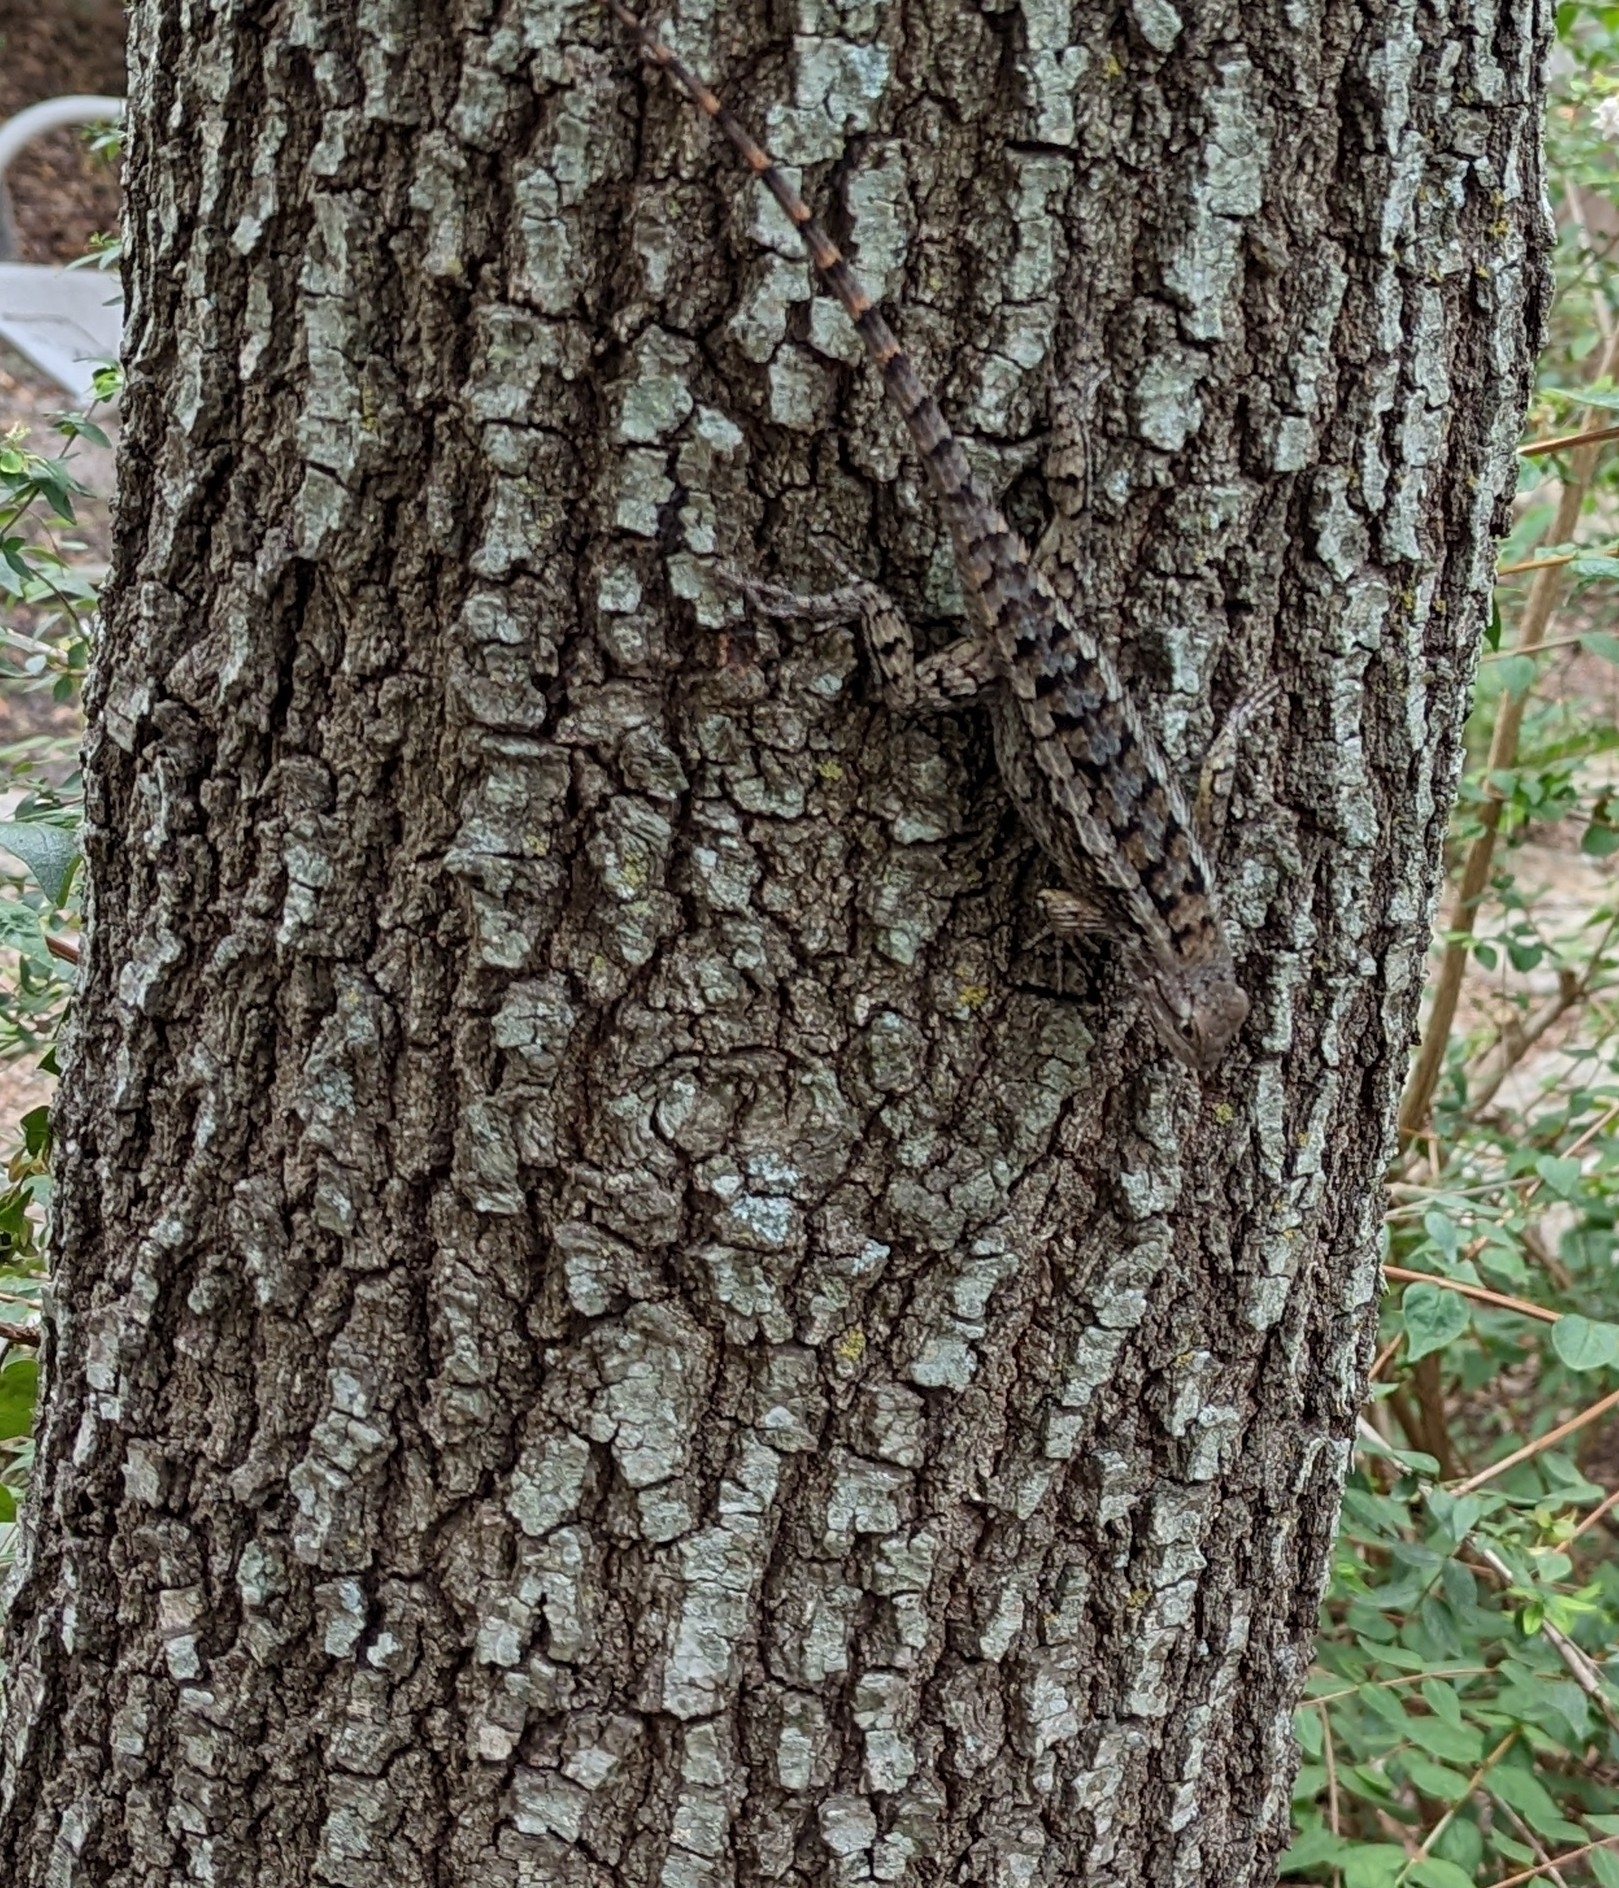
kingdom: Animalia
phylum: Chordata
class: Squamata
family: Phrynosomatidae
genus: Sceloporus
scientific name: Sceloporus olivaceus
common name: Texas spiny lizard
